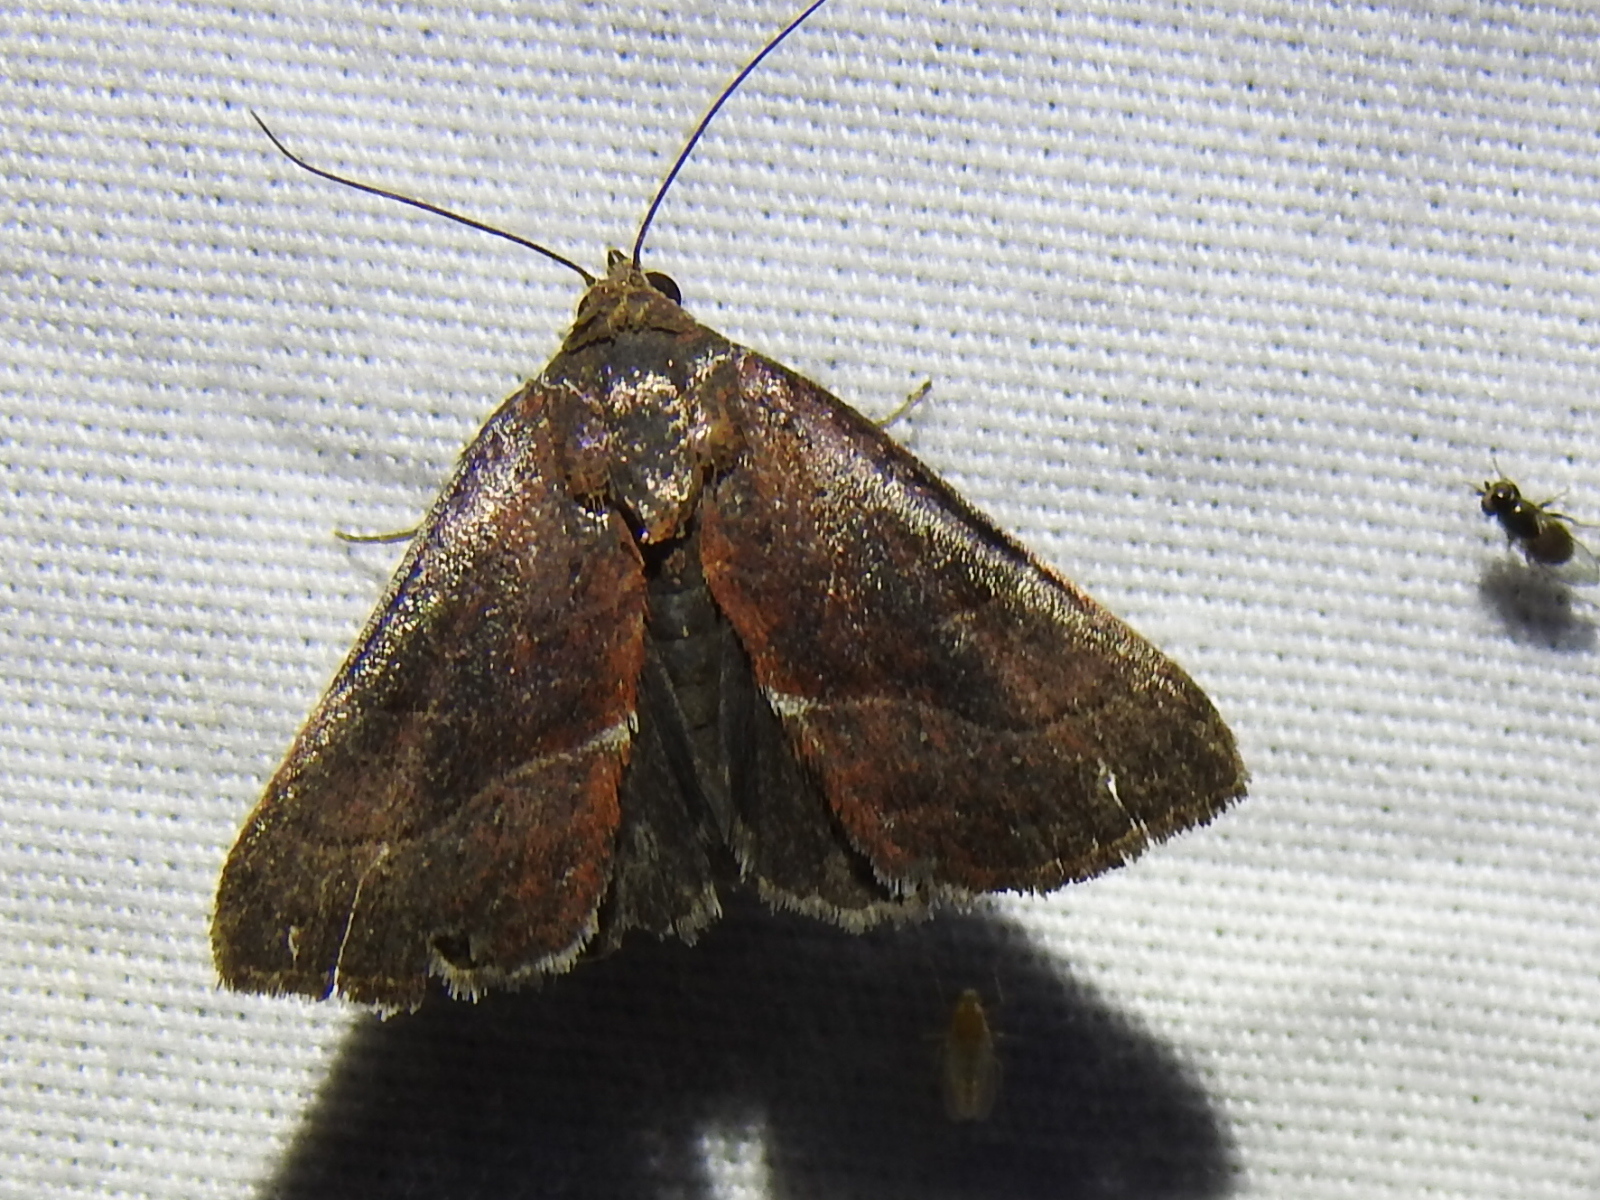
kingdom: Animalia
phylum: Arthropoda
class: Insecta
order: Lepidoptera
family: Noctuidae
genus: Galgula
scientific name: Galgula partita
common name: Wedgeling
